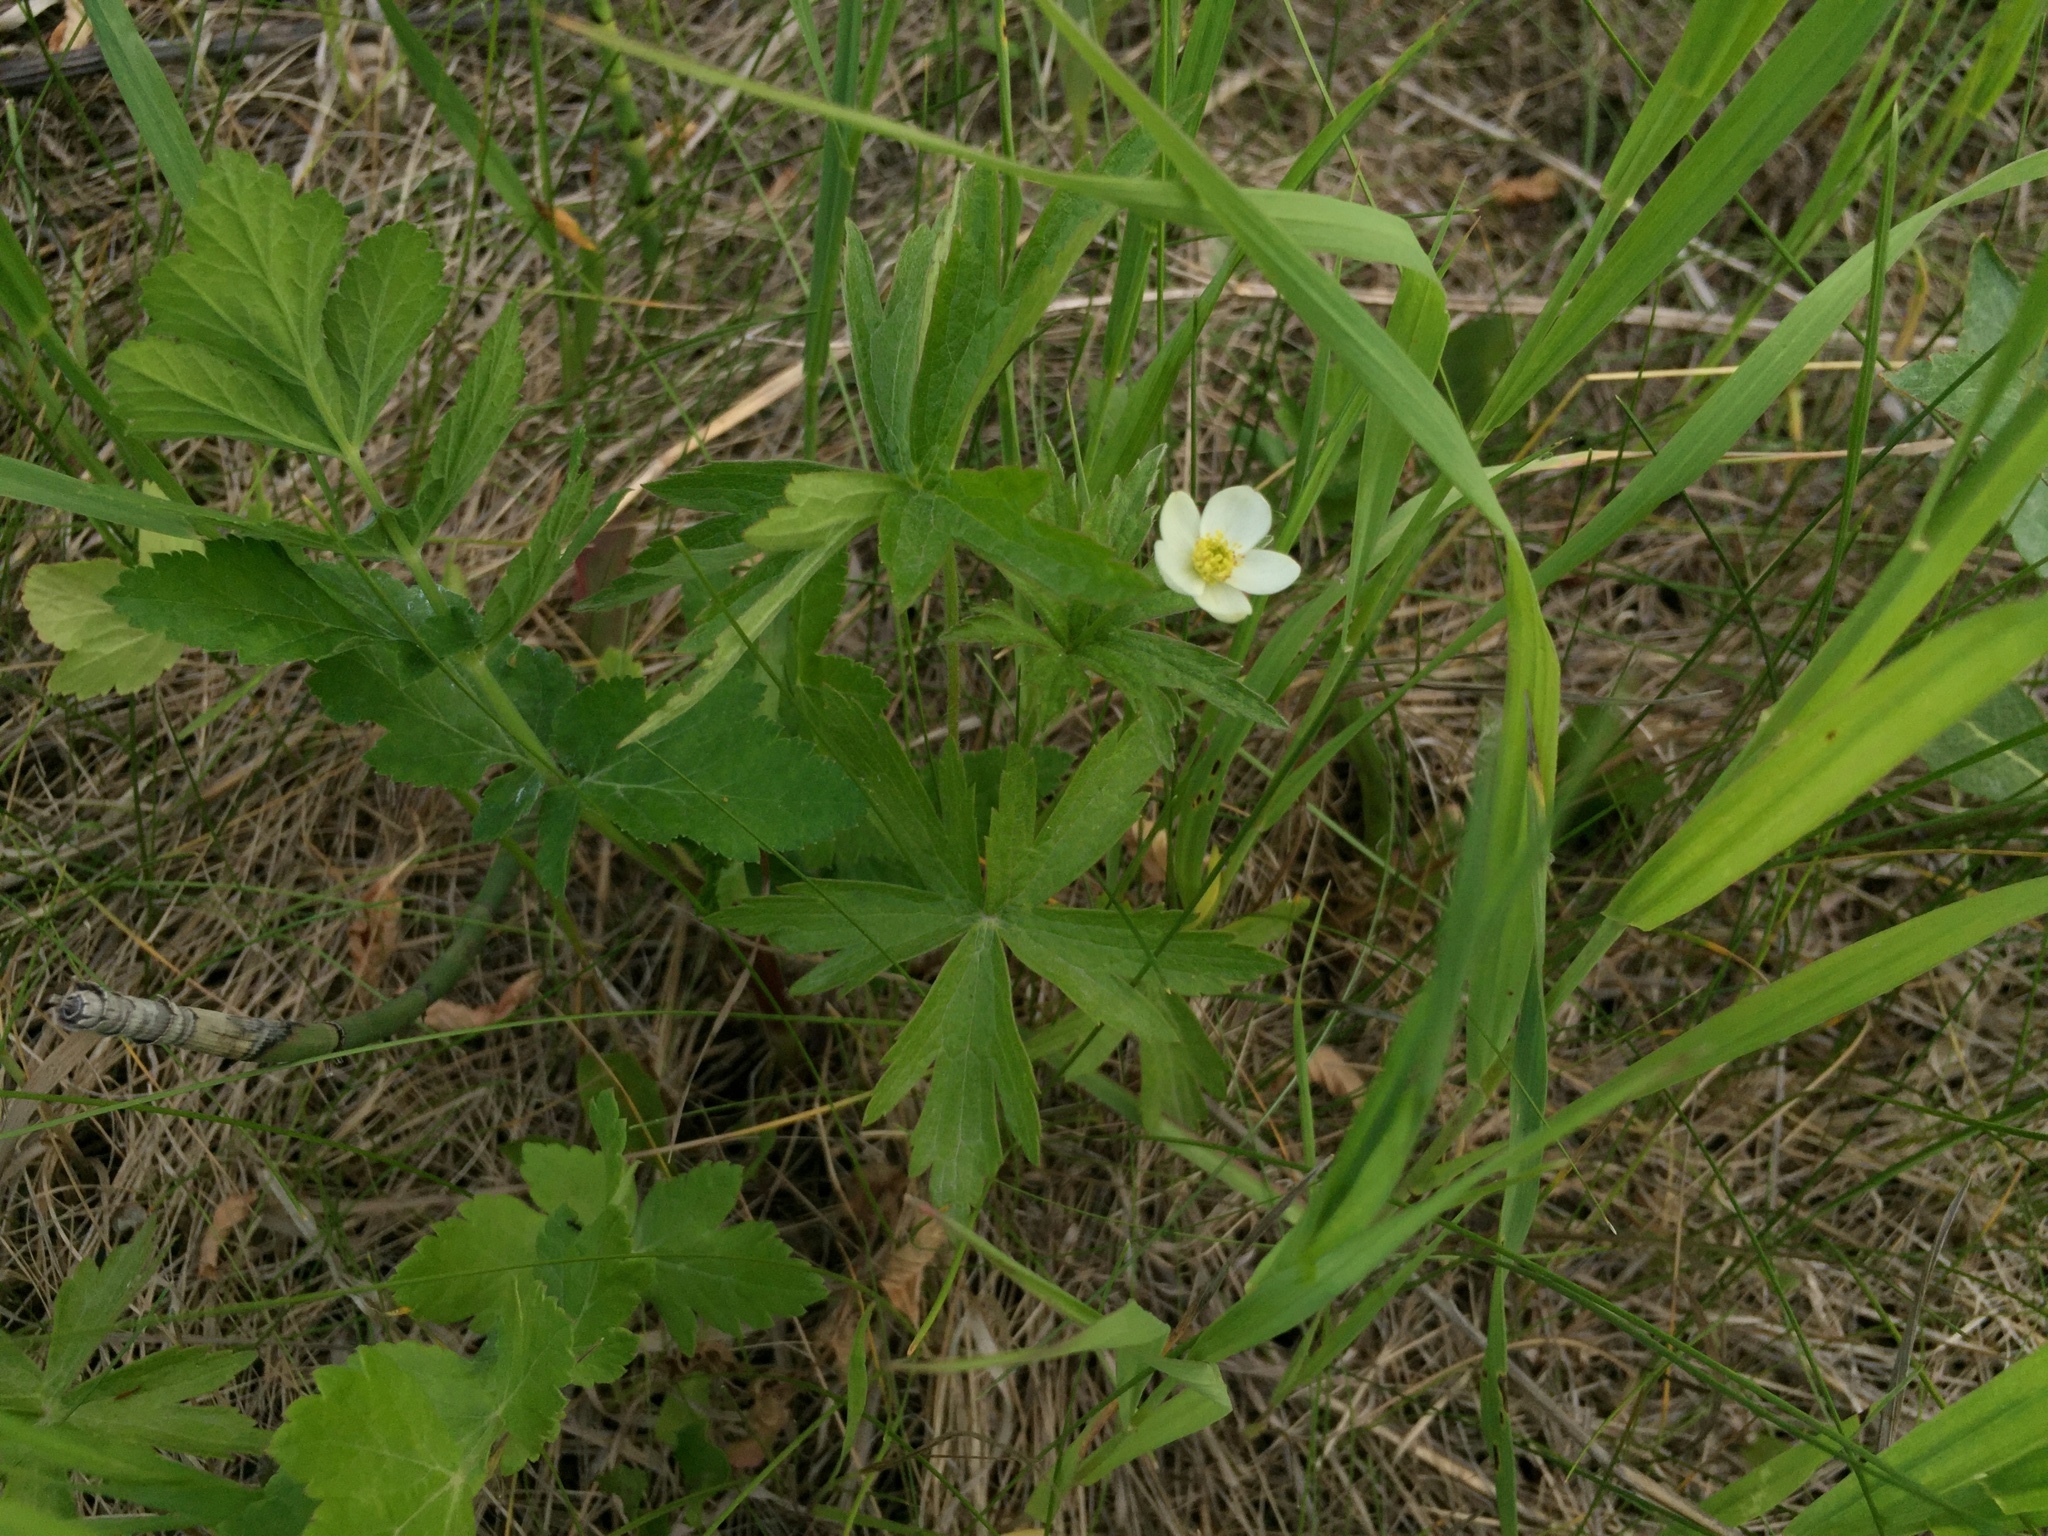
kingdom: Plantae
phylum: Tracheophyta
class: Magnoliopsida
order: Ranunculales
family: Ranunculaceae
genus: Anemonastrum
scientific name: Anemonastrum canadense
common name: Canada anemone
